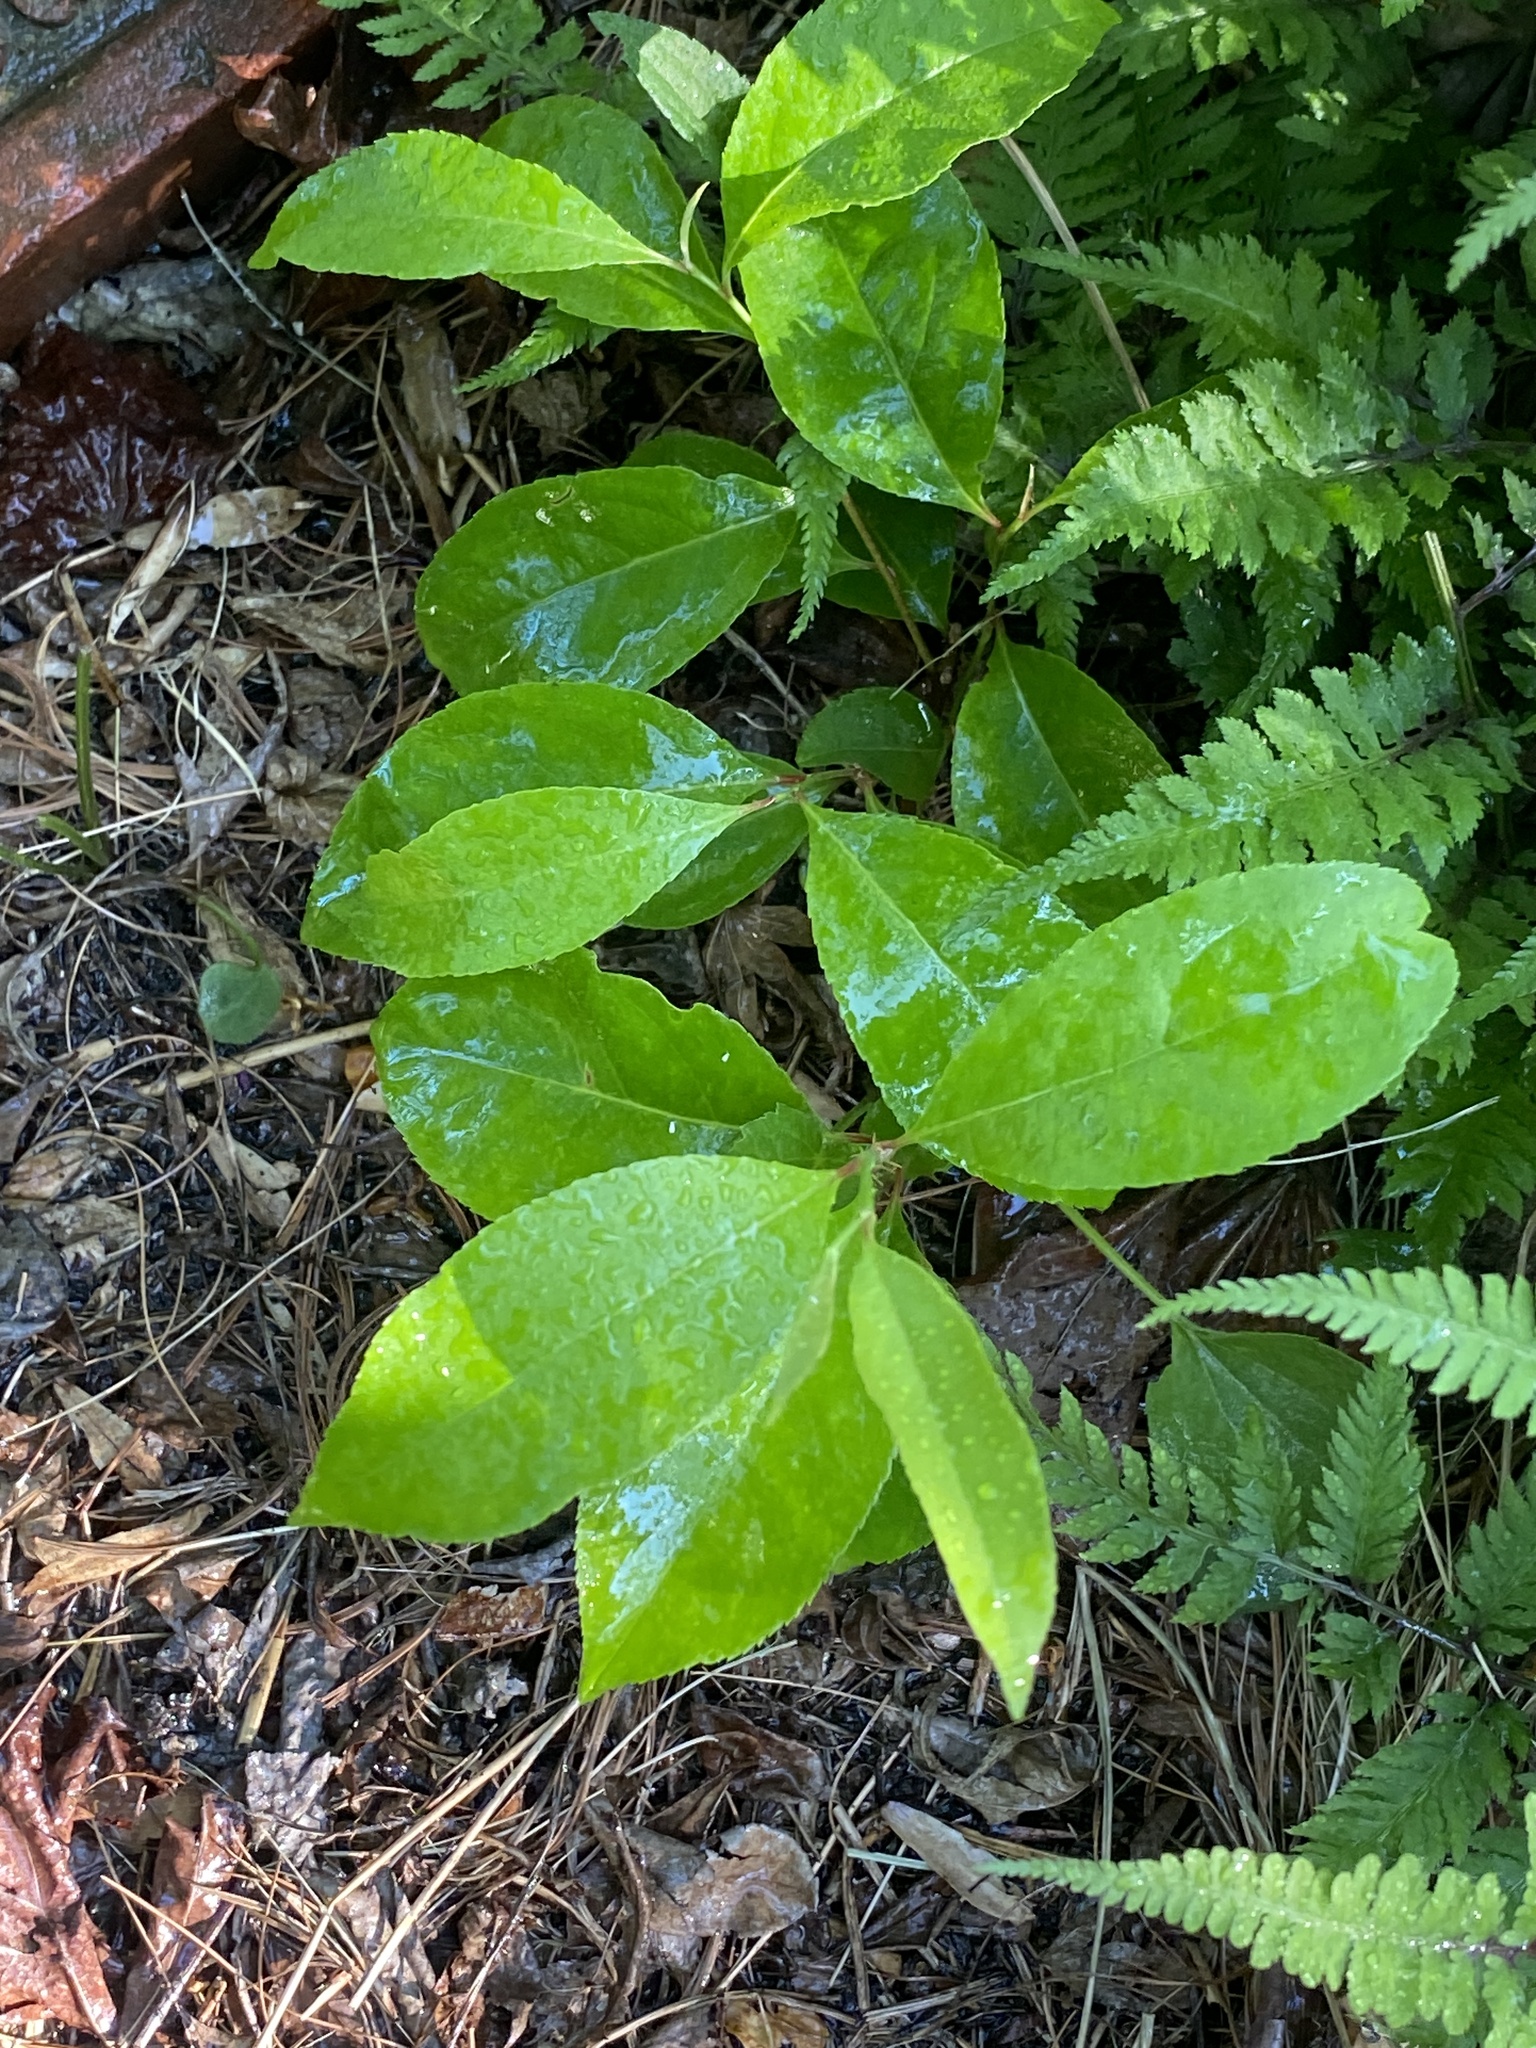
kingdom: Plantae
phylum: Tracheophyta
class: Magnoliopsida
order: Rosales
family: Rosaceae
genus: Prunus
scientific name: Prunus serotina
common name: Black cherry
